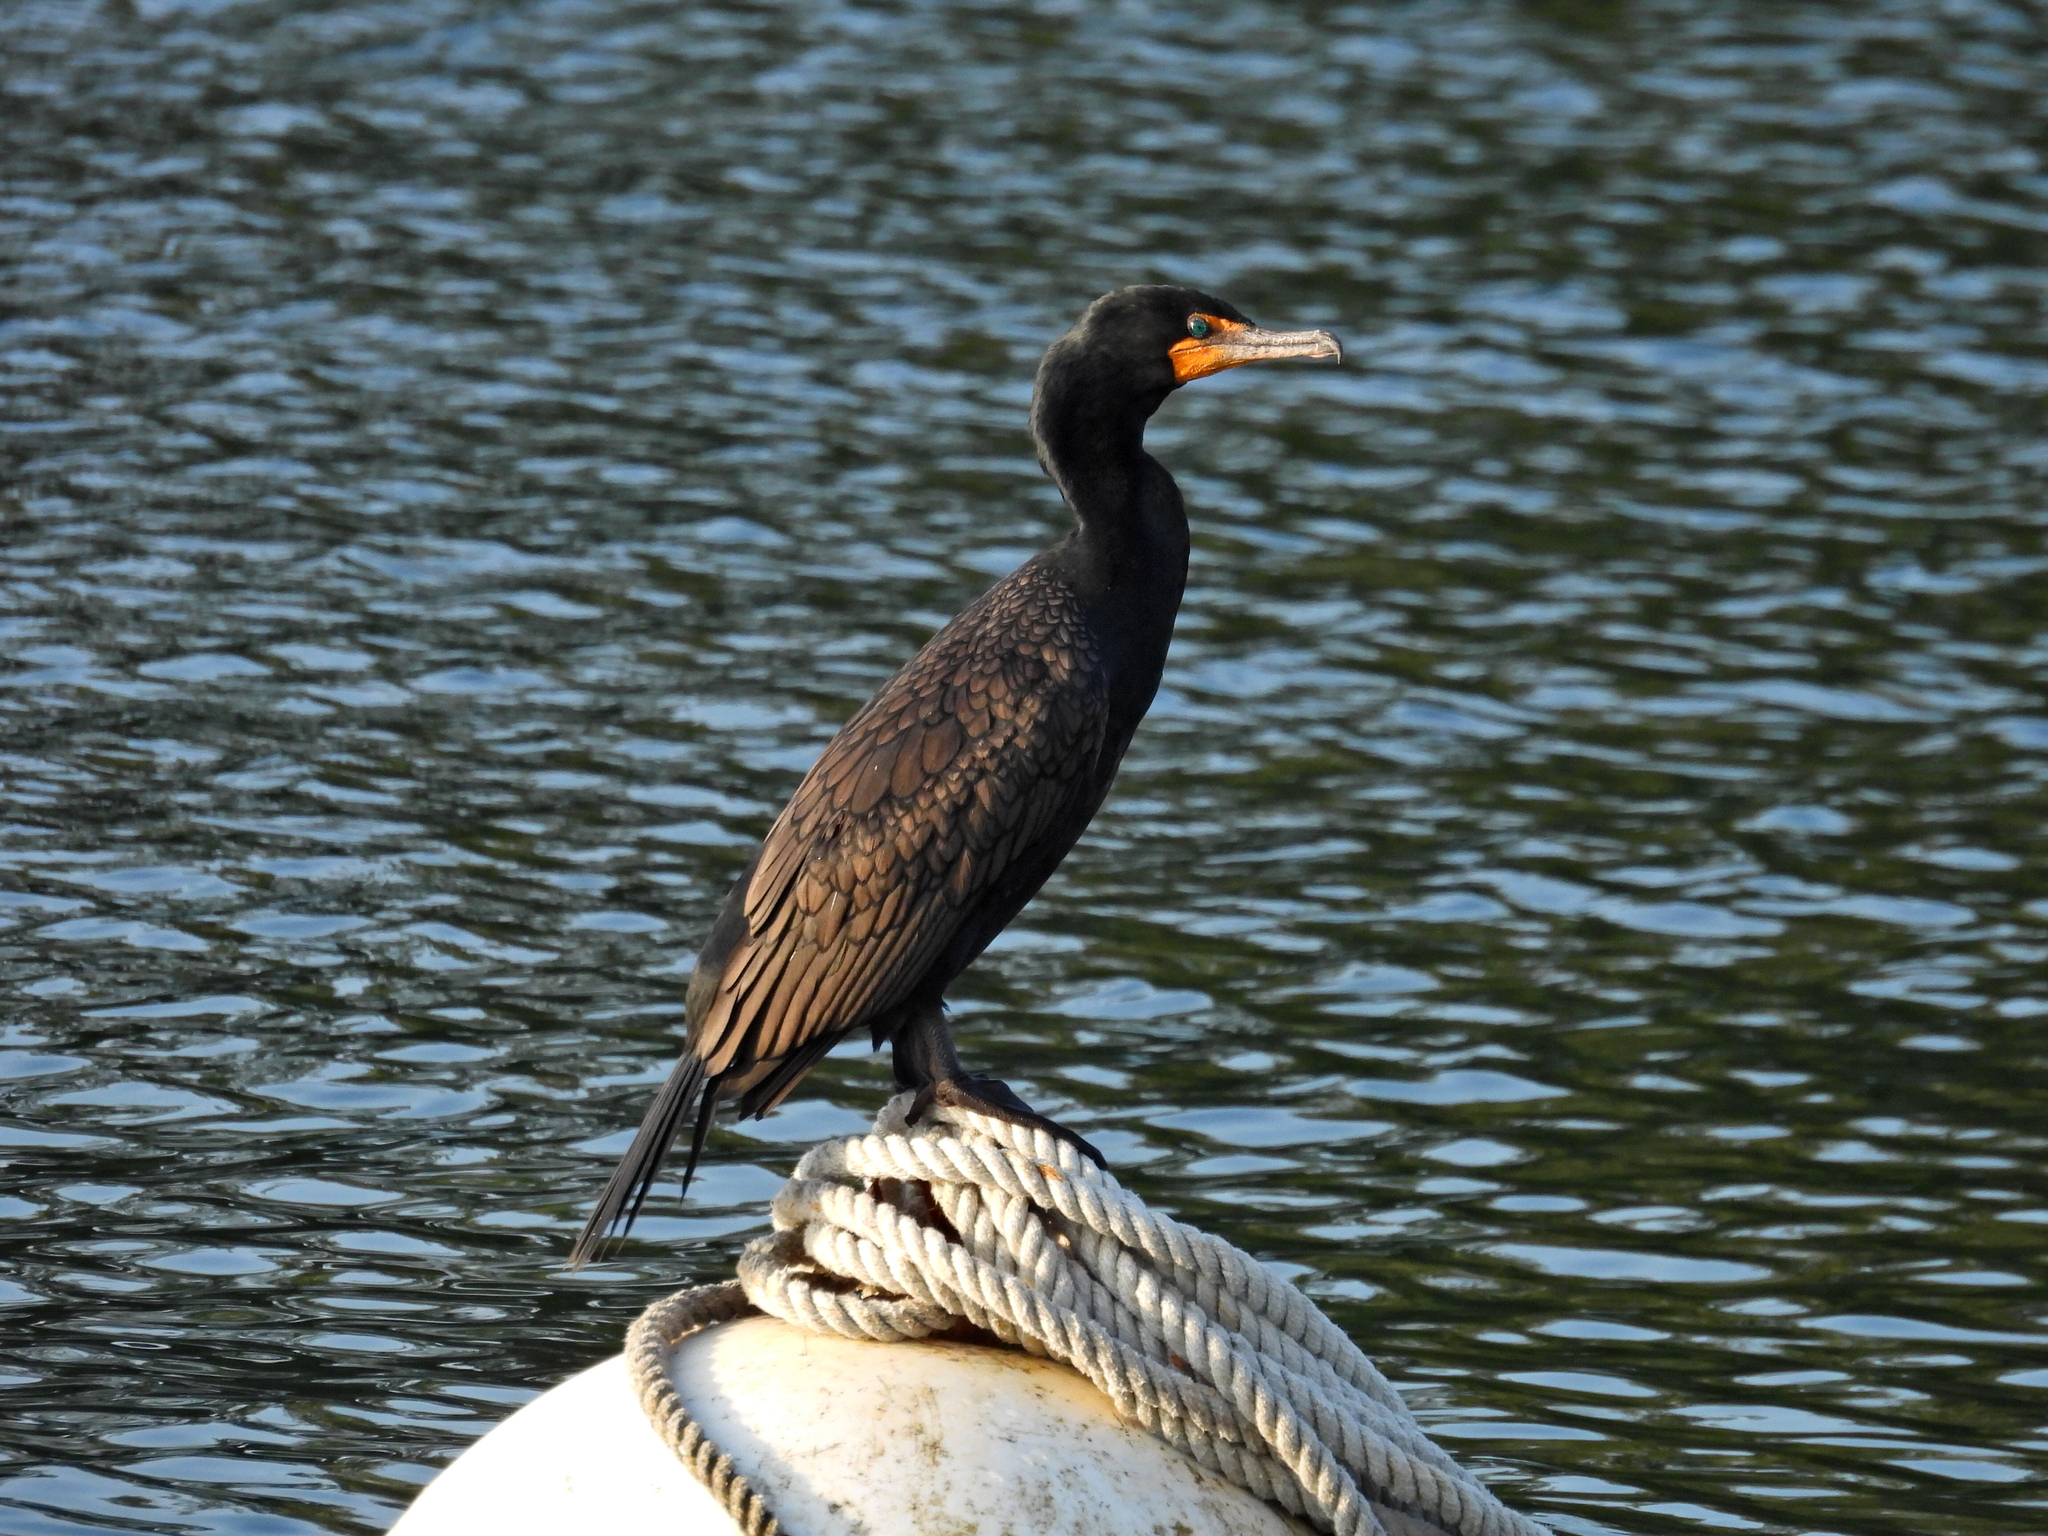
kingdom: Animalia
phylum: Chordata
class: Aves
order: Suliformes
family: Phalacrocoracidae
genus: Phalacrocorax
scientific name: Phalacrocorax auritus
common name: Double-crested cormorant
